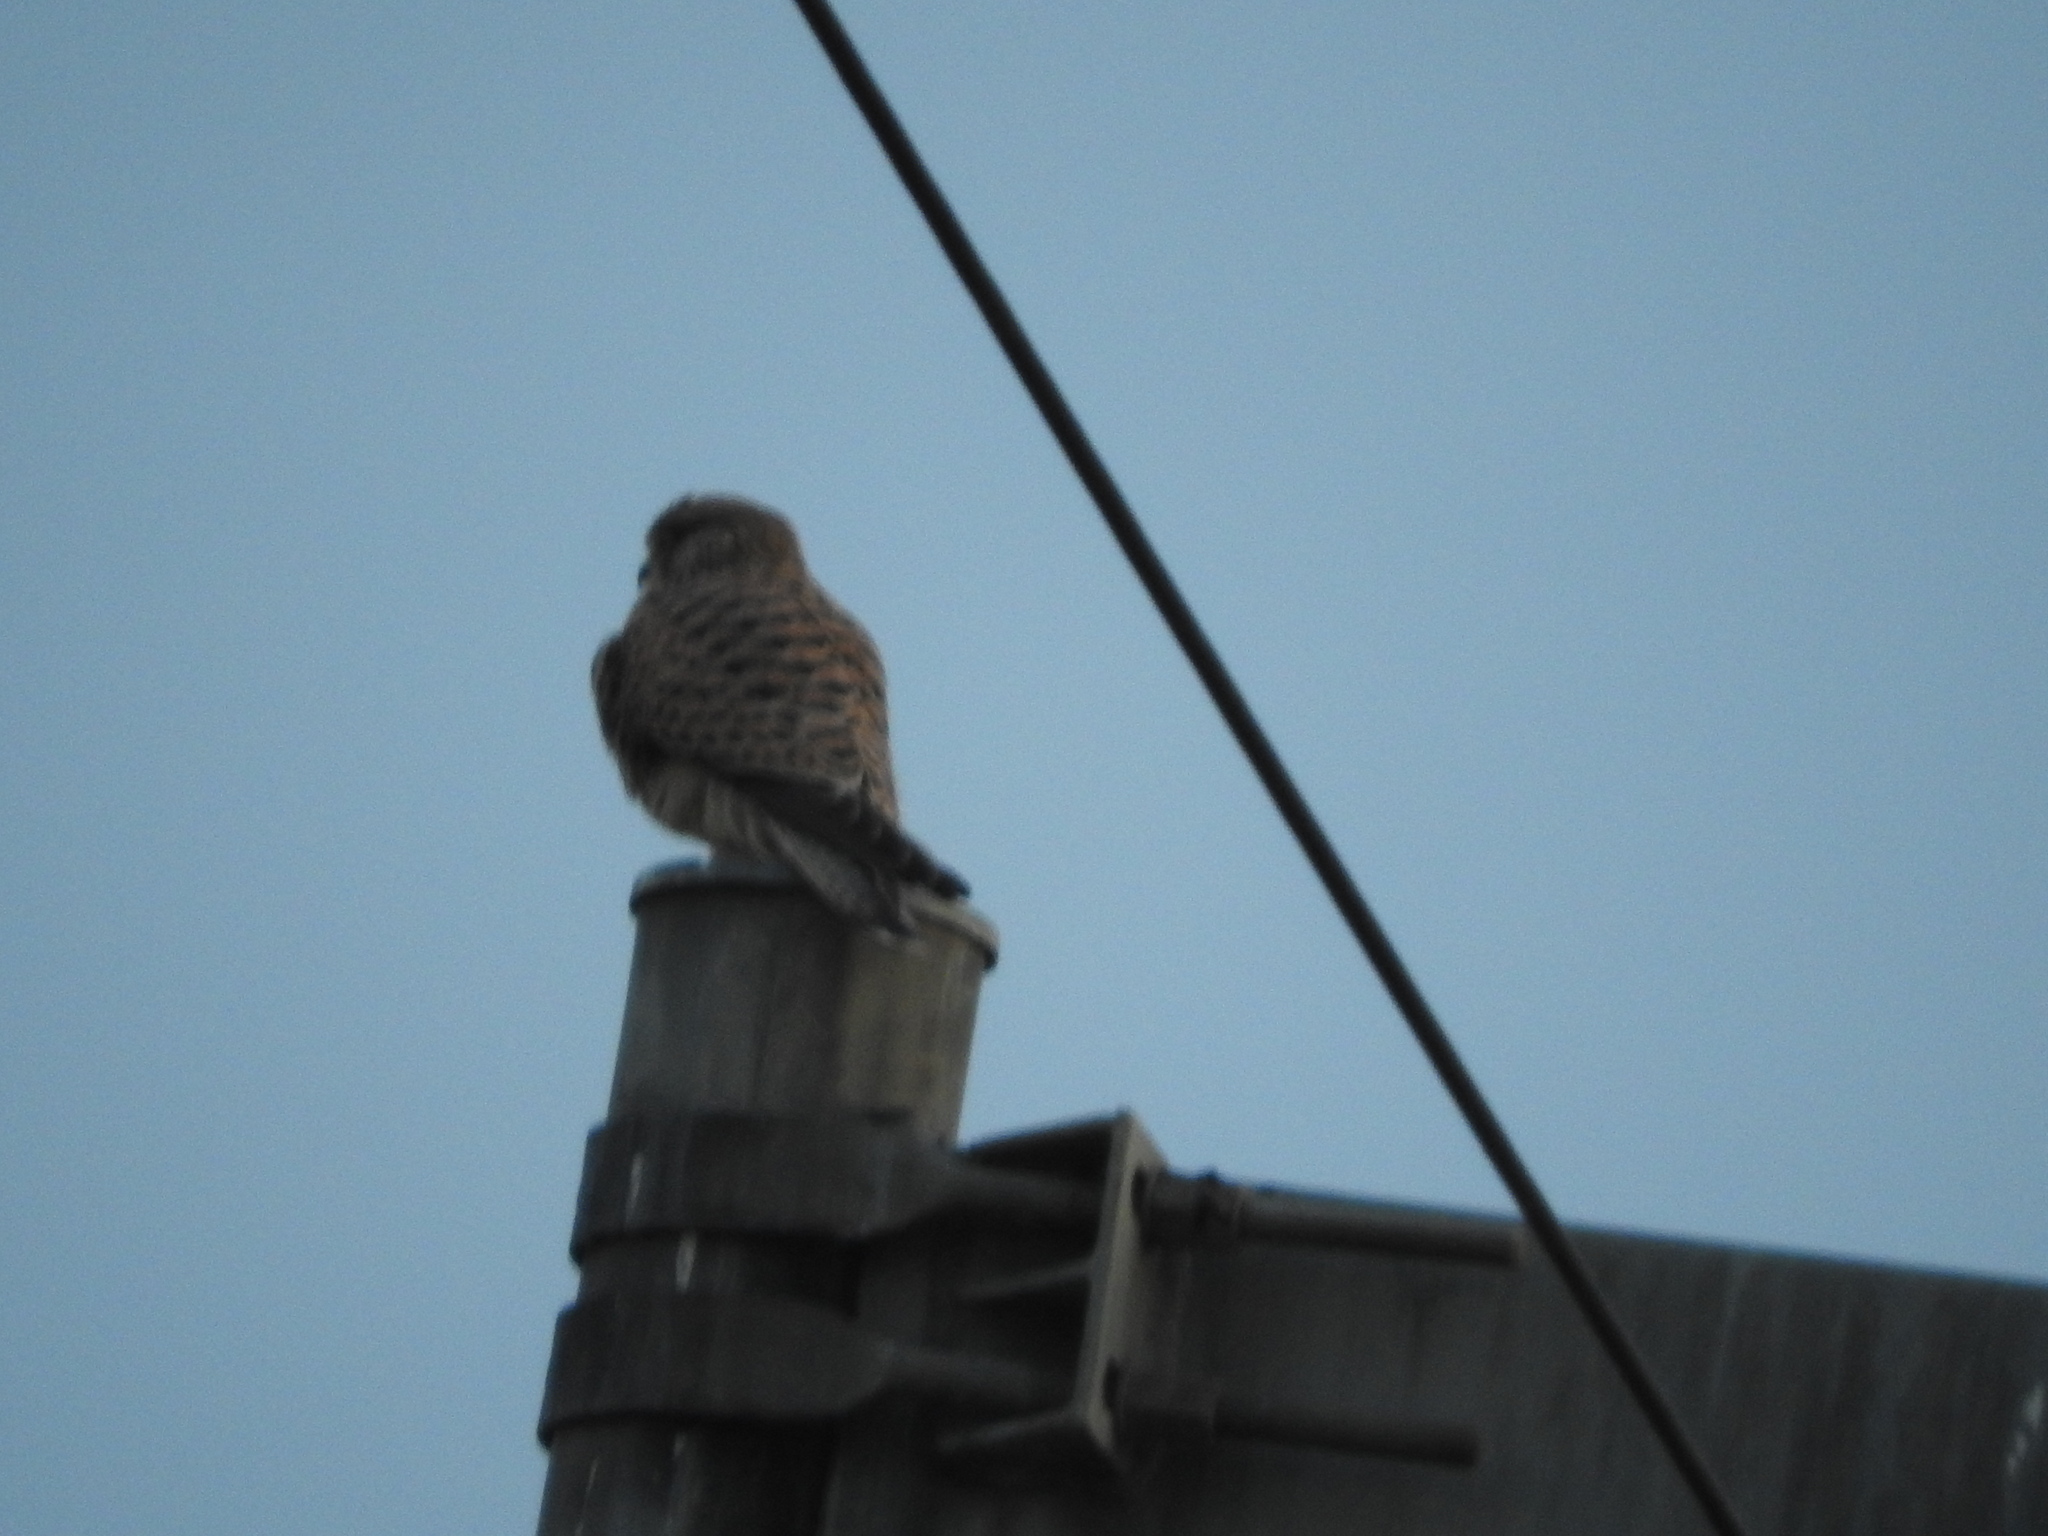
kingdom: Animalia
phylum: Chordata
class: Aves
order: Falconiformes
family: Falconidae
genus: Falco
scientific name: Falco tinnunculus
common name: Common kestrel
